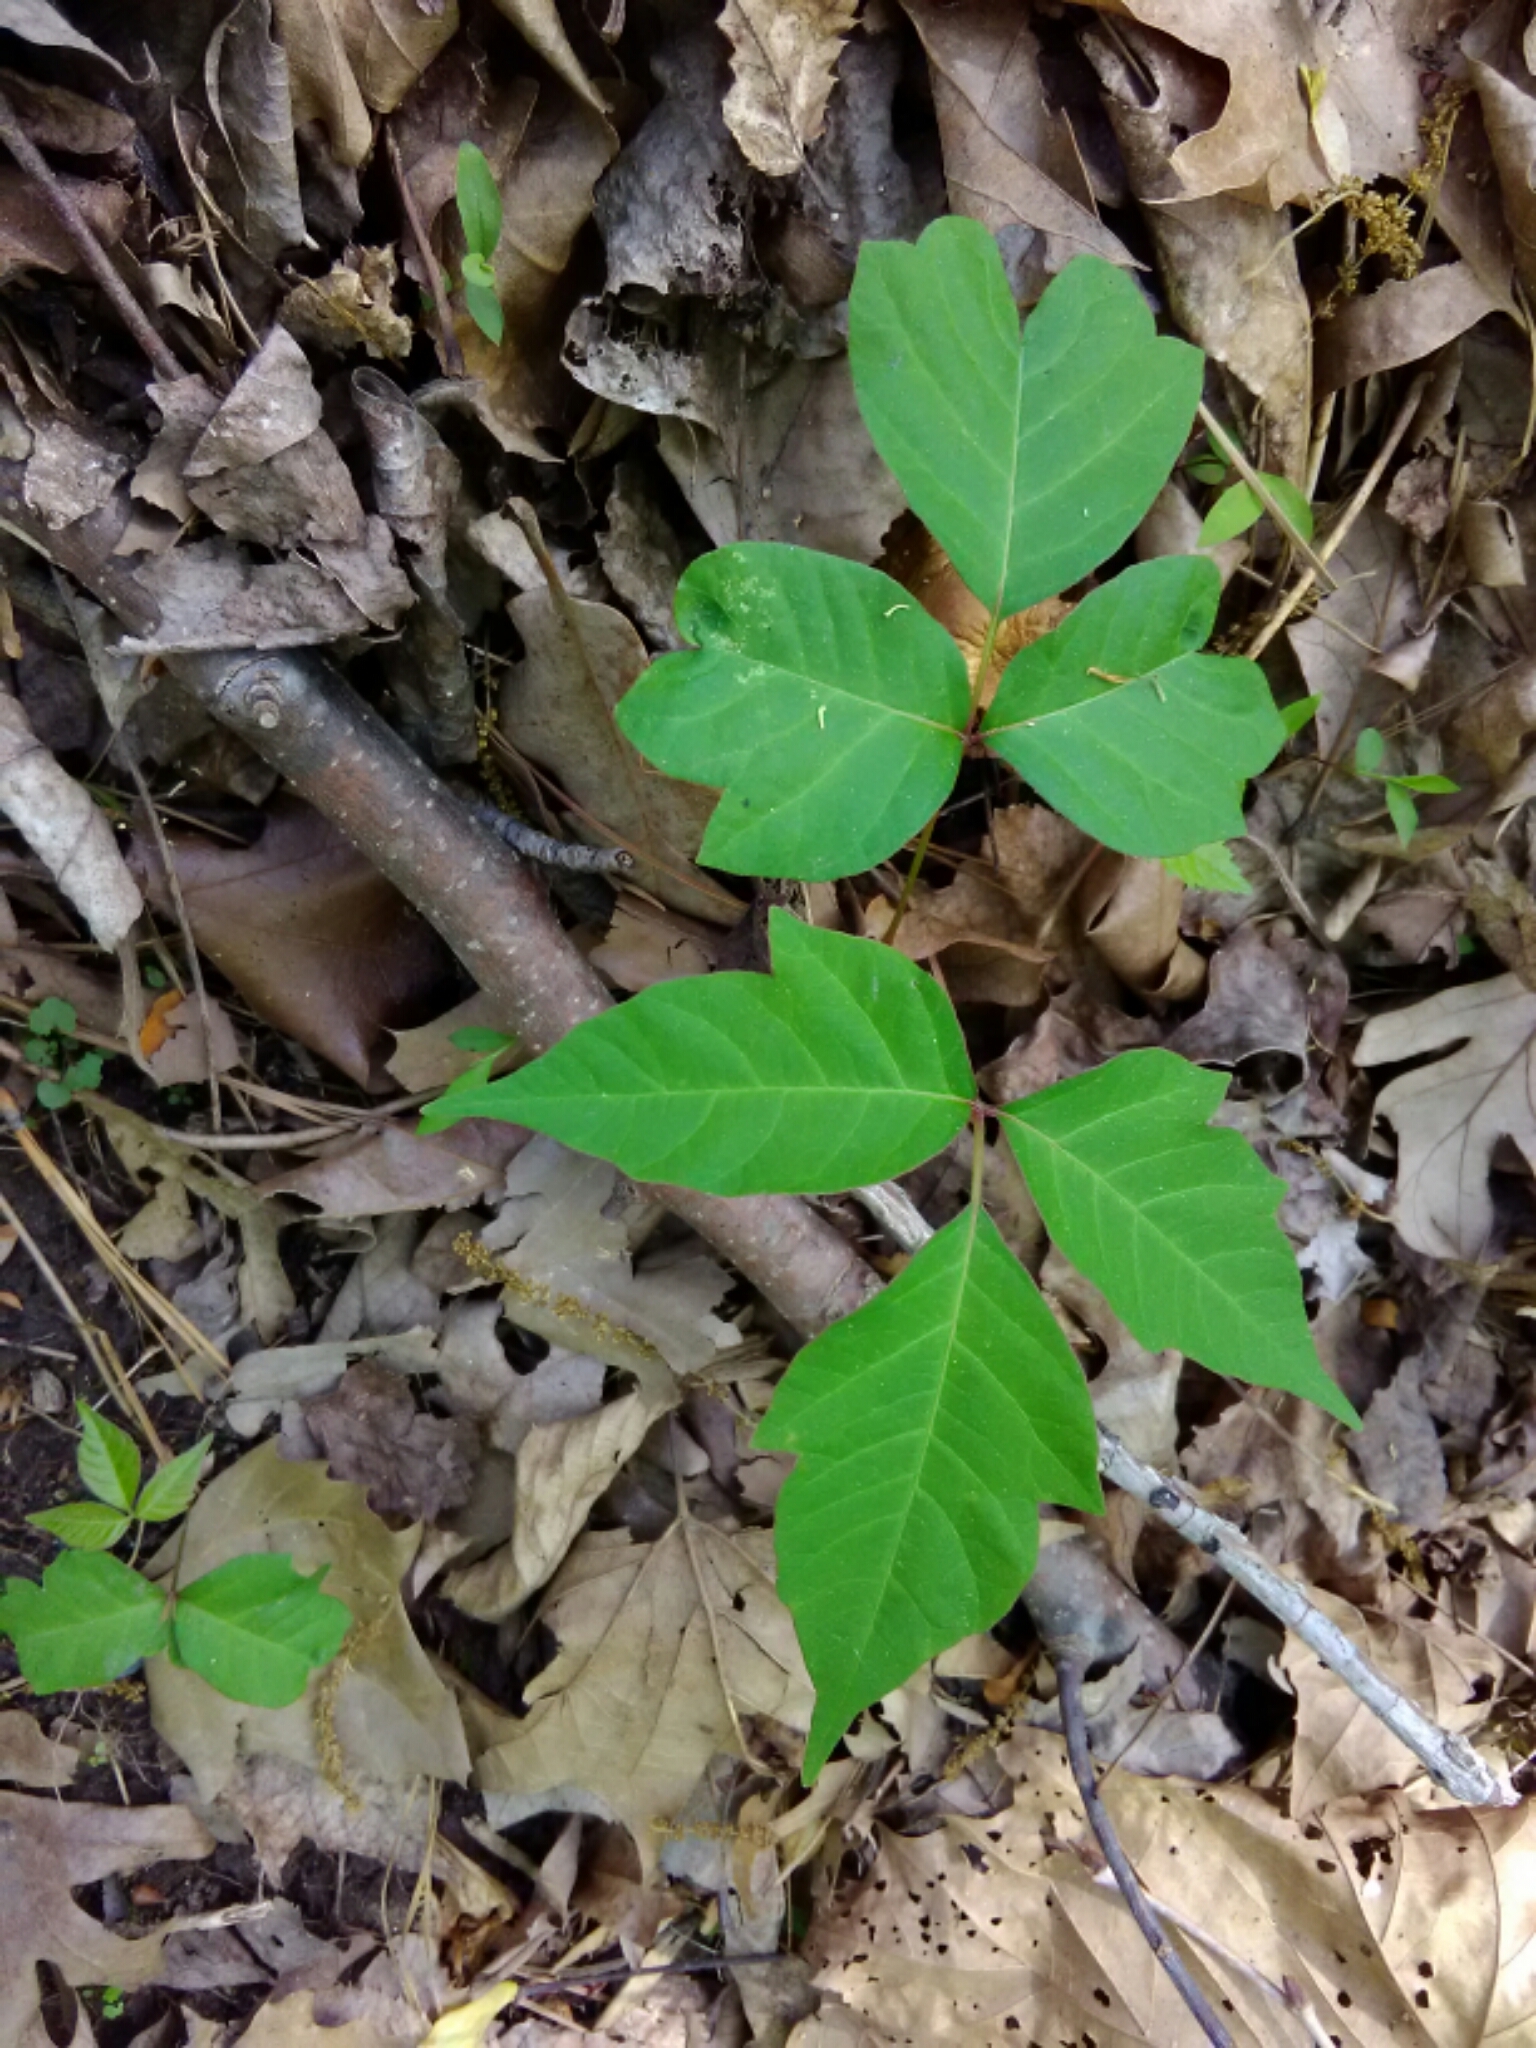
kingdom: Plantae
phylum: Tracheophyta
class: Magnoliopsida
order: Sapindales
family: Anacardiaceae
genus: Toxicodendron
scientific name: Toxicodendron radicans
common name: Poison ivy
